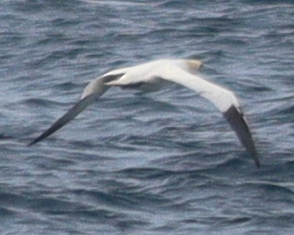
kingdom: Animalia
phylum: Chordata
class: Aves
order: Suliformes
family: Sulidae
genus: Morus
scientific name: Morus bassanus
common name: Northern gannet
